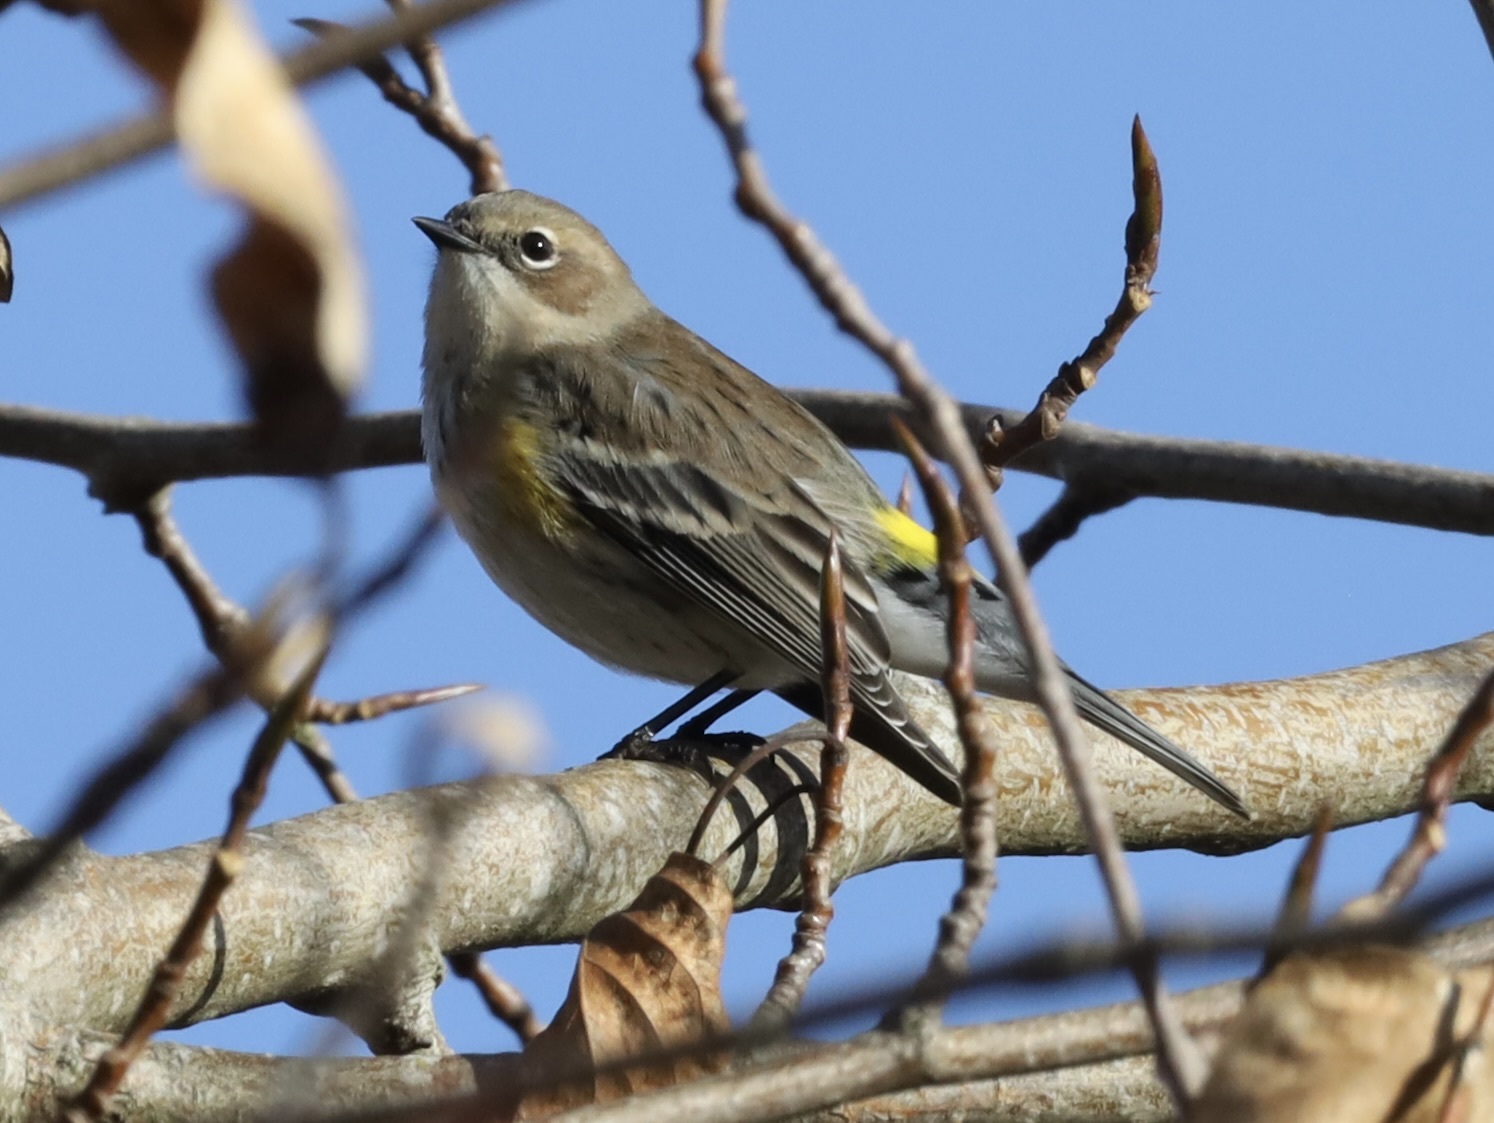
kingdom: Animalia
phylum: Chordata
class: Aves
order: Passeriformes
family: Parulidae
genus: Setophaga
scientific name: Setophaga coronata
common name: Myrtle warbler
